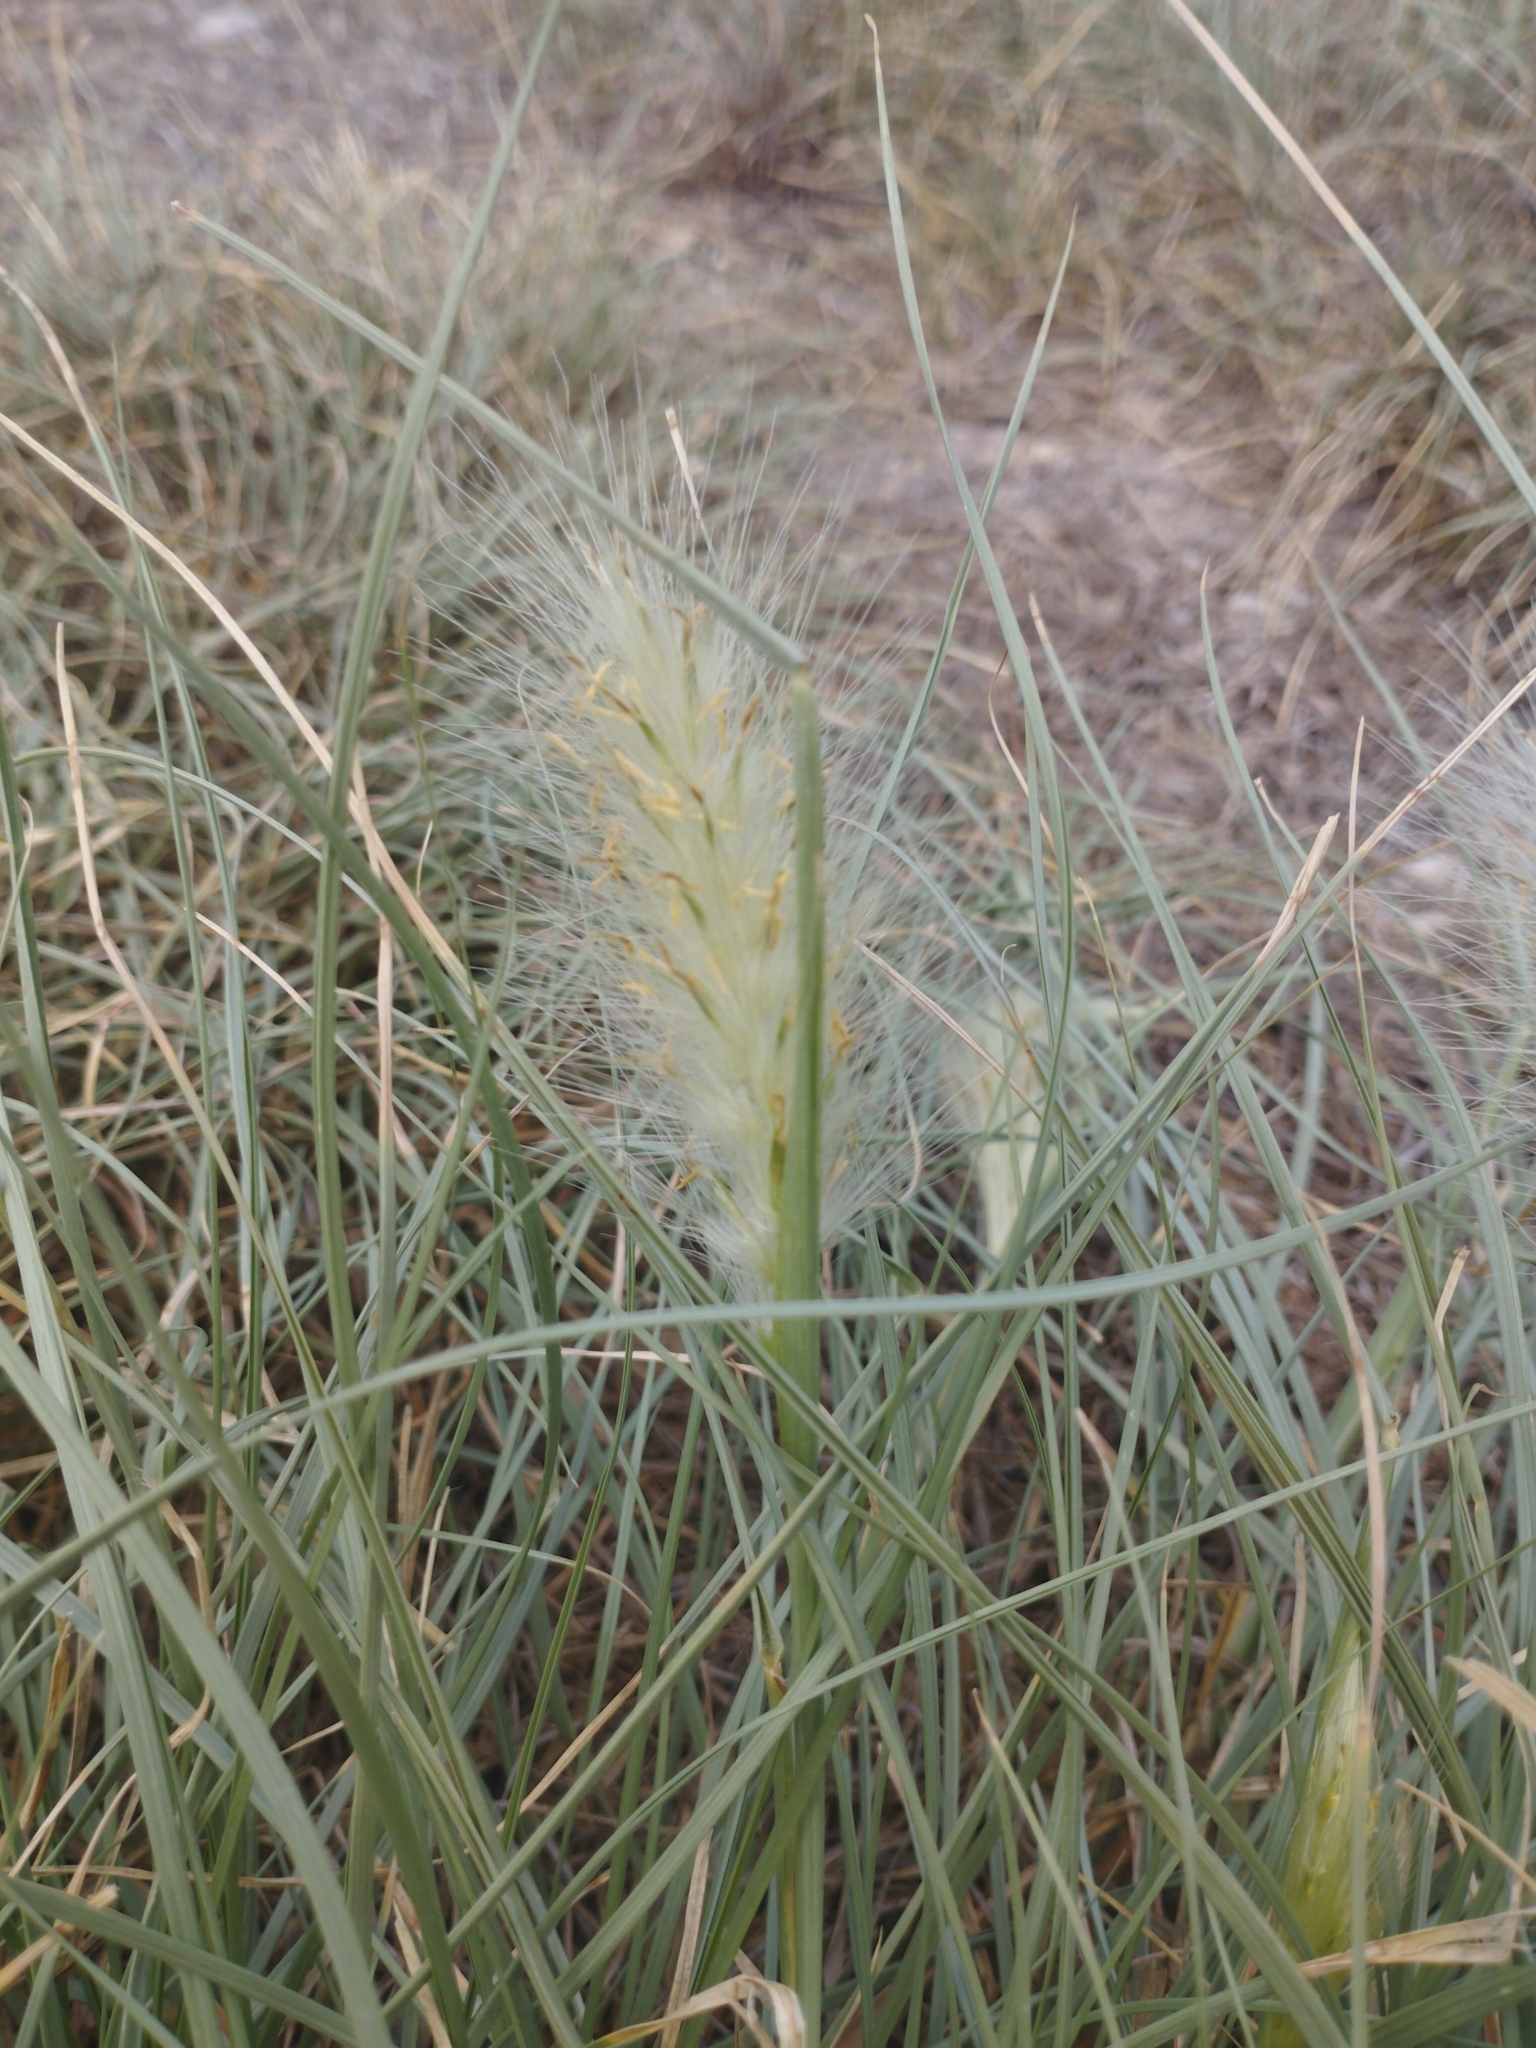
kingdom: Plantae
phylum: Tracheophyta
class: Liliopsida
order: Poales
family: Poaceae
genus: Cenchrus
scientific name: Cenchrus longisetus
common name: Feathertop
